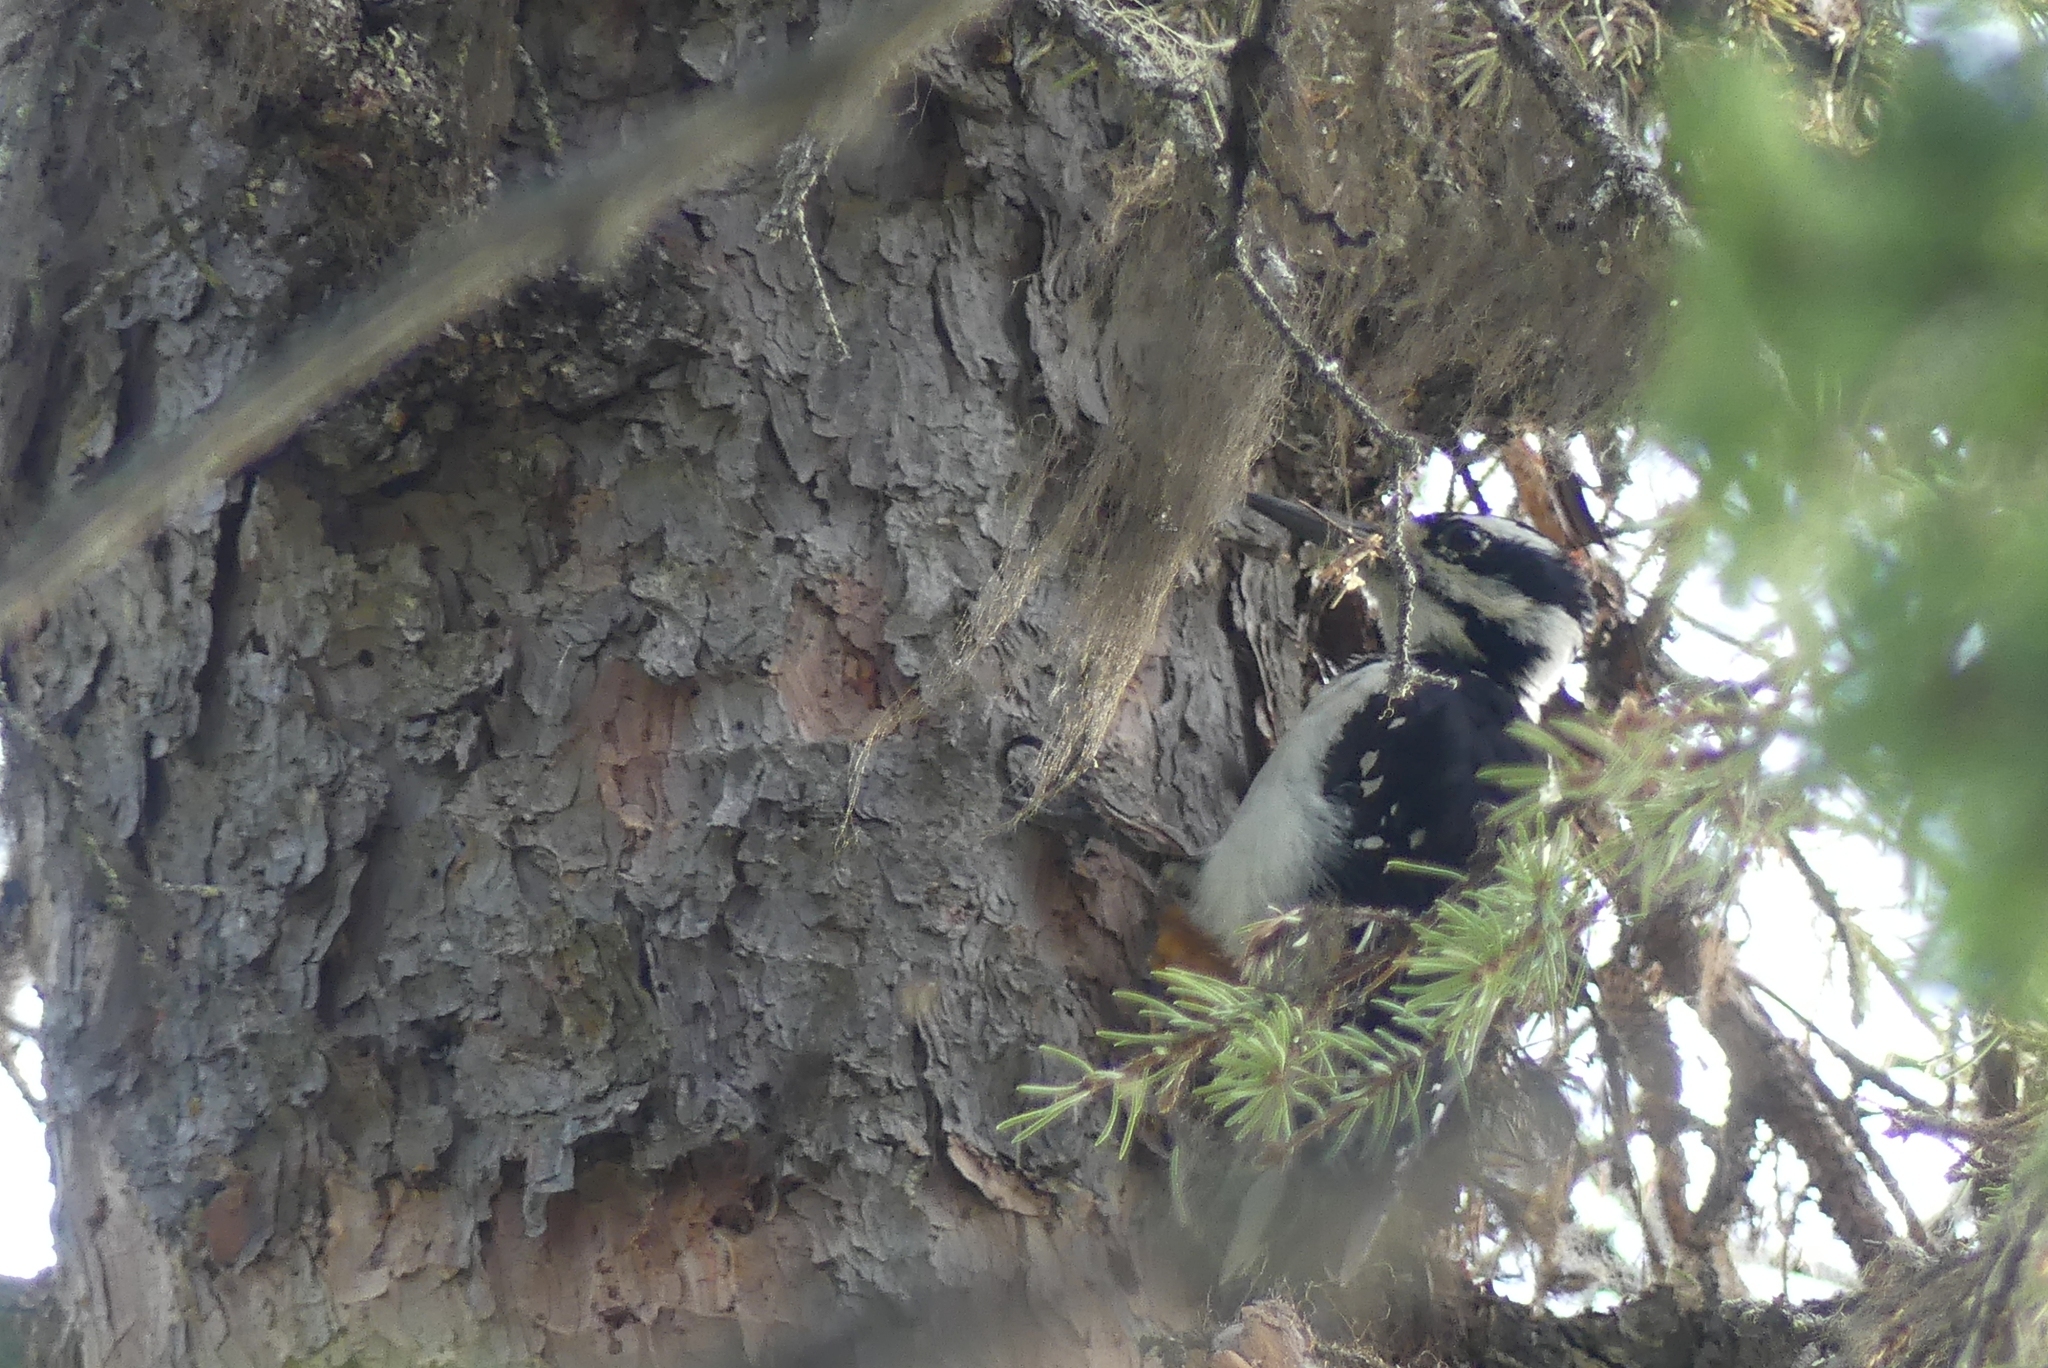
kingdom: Animalia
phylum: Chordata
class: Aves
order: Piciformes
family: Picidae
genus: Leuconotopicus
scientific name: Leuconotopicus villosus
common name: Hairy woodpecker
